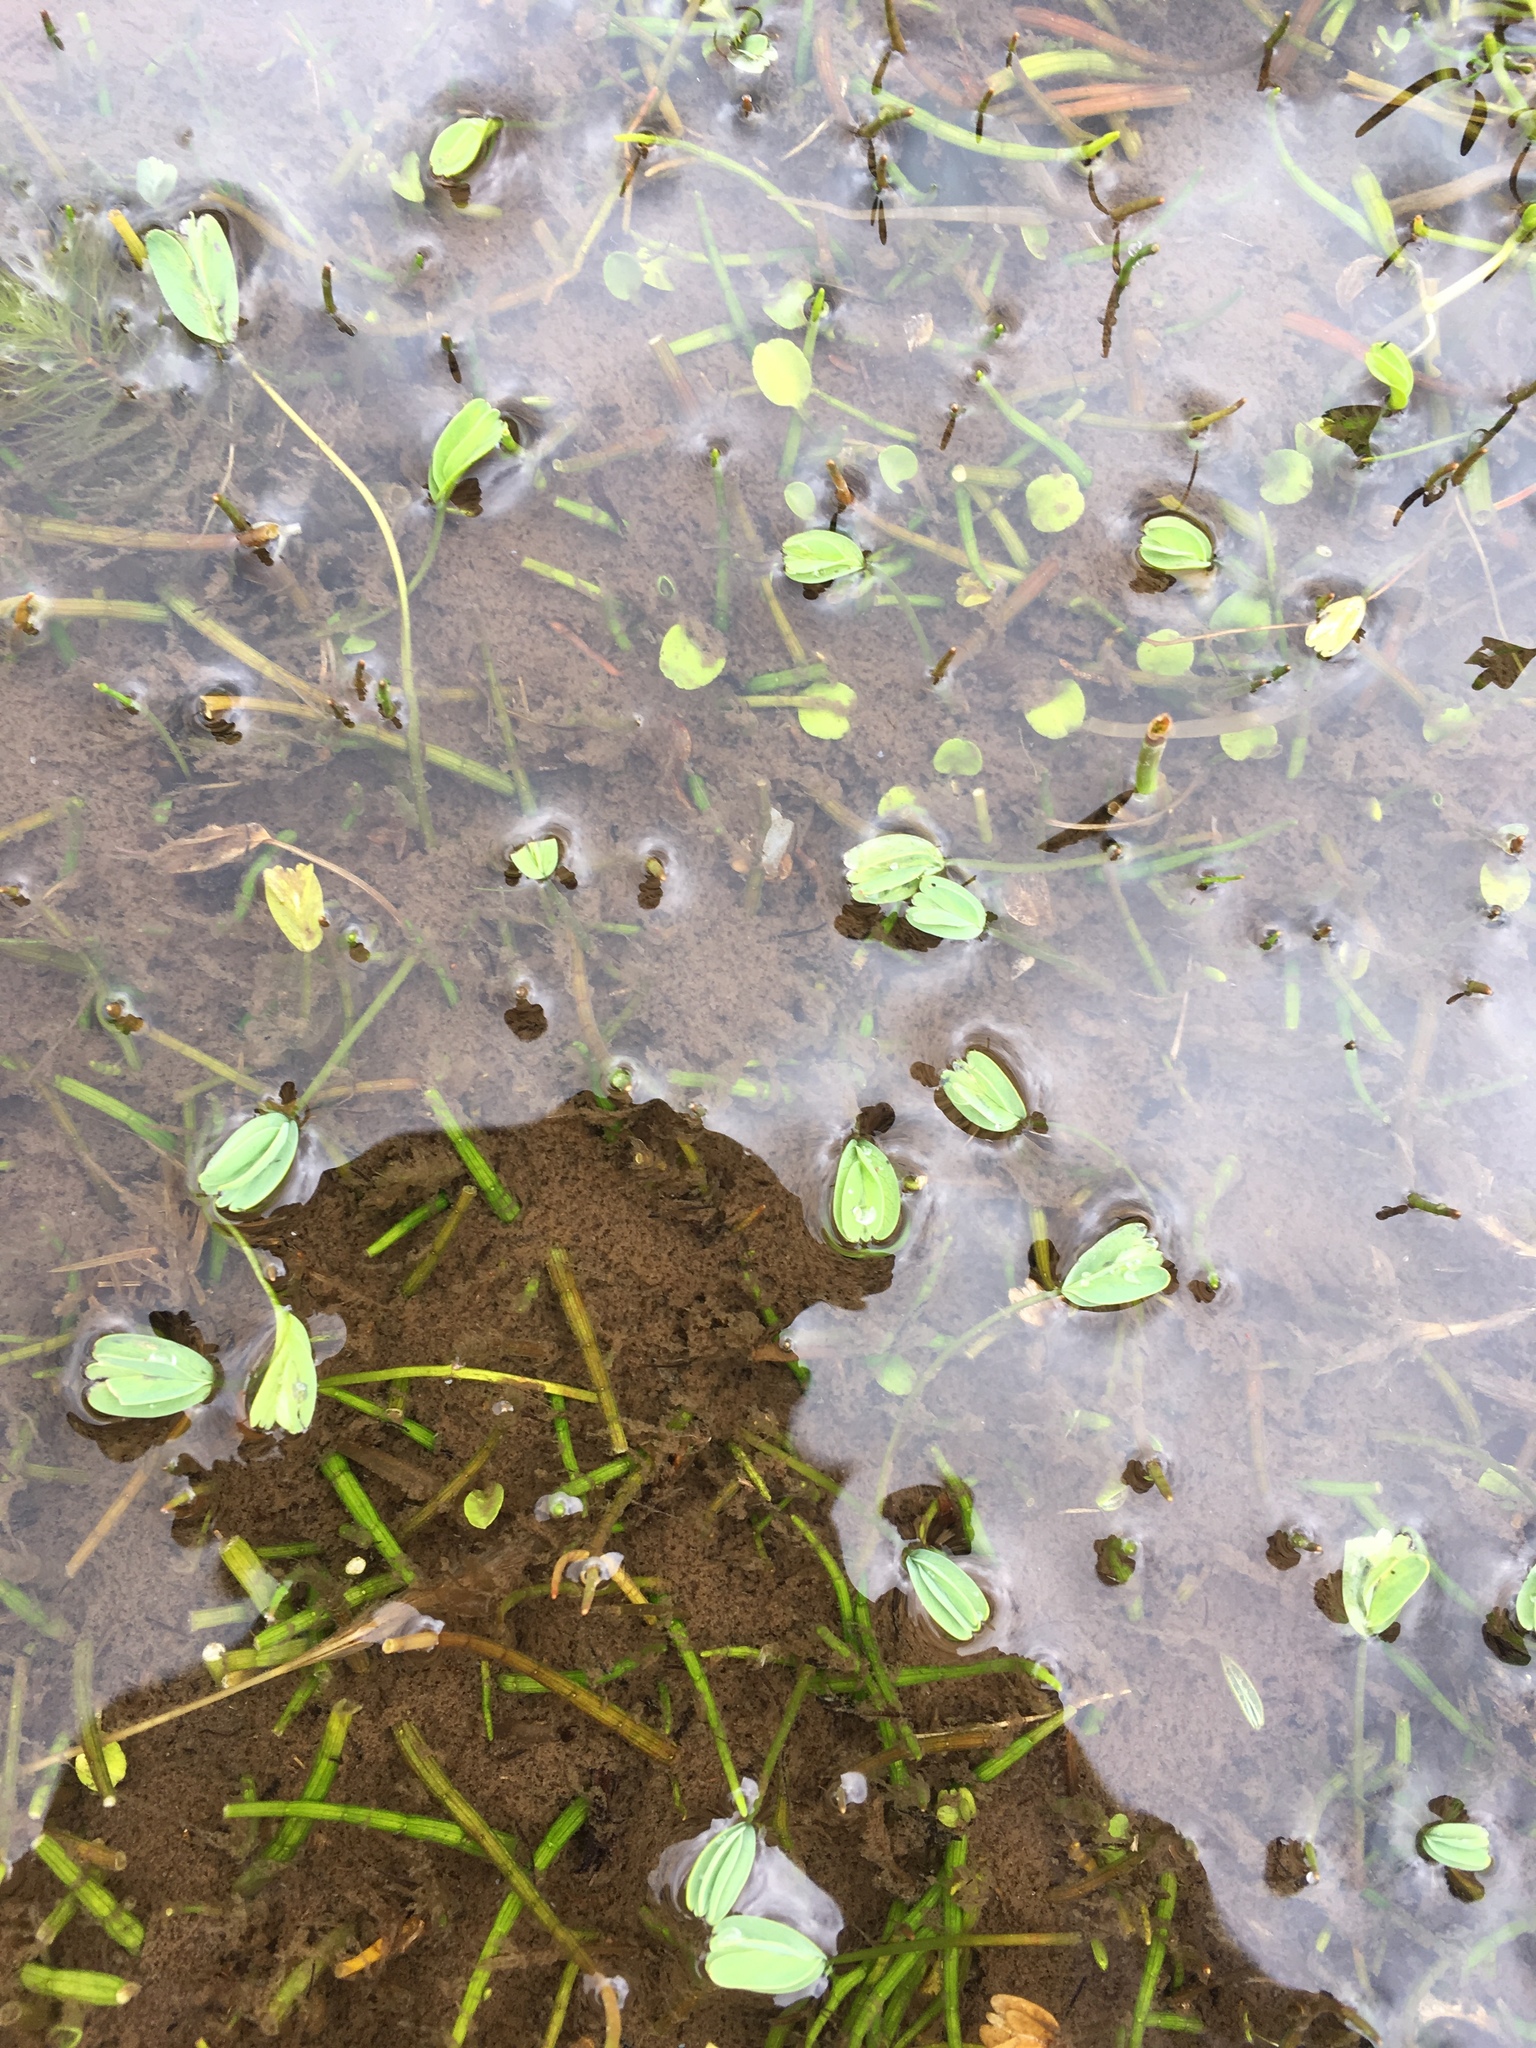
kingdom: Plantae
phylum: Tracheophyta
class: Magnoliopsida
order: Rosales
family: Rosaceae
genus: Lachemilla
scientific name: Lachemilla diplophylla
